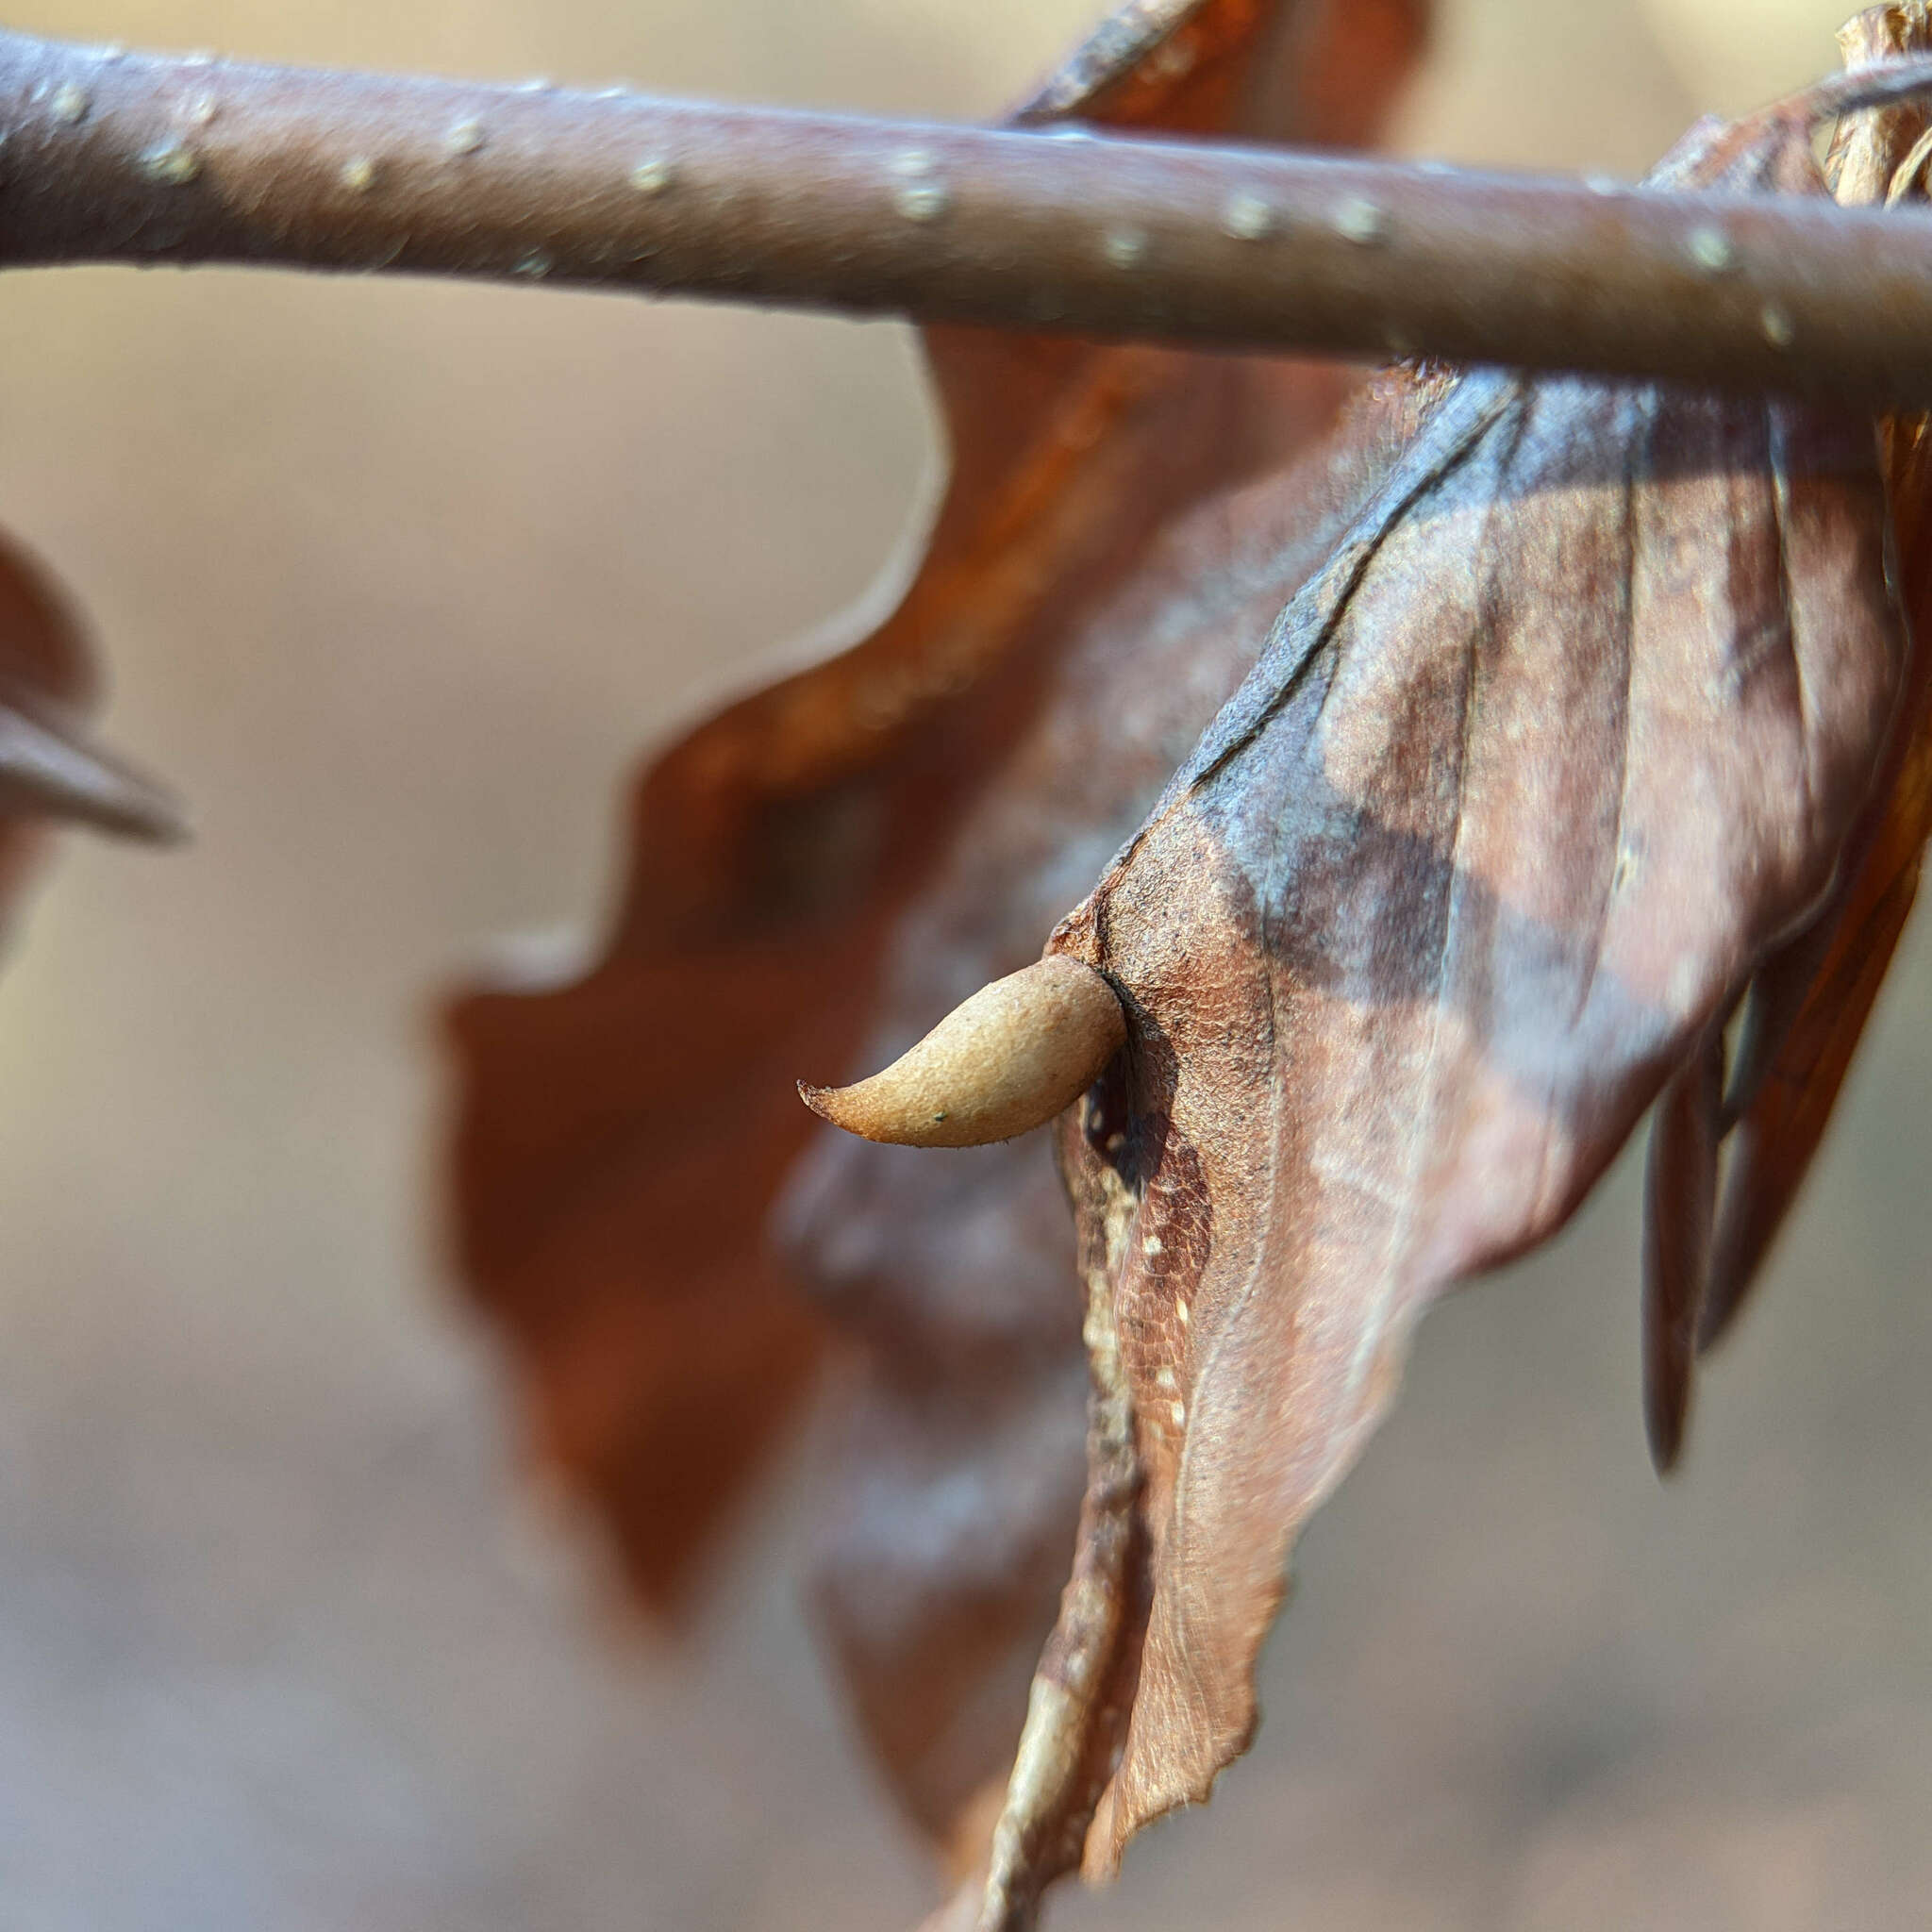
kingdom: Animalia
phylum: Arthropoda
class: Insecta
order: Diptera
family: Cecidomyiidae
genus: Mikiola
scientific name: Mikiola fagi
